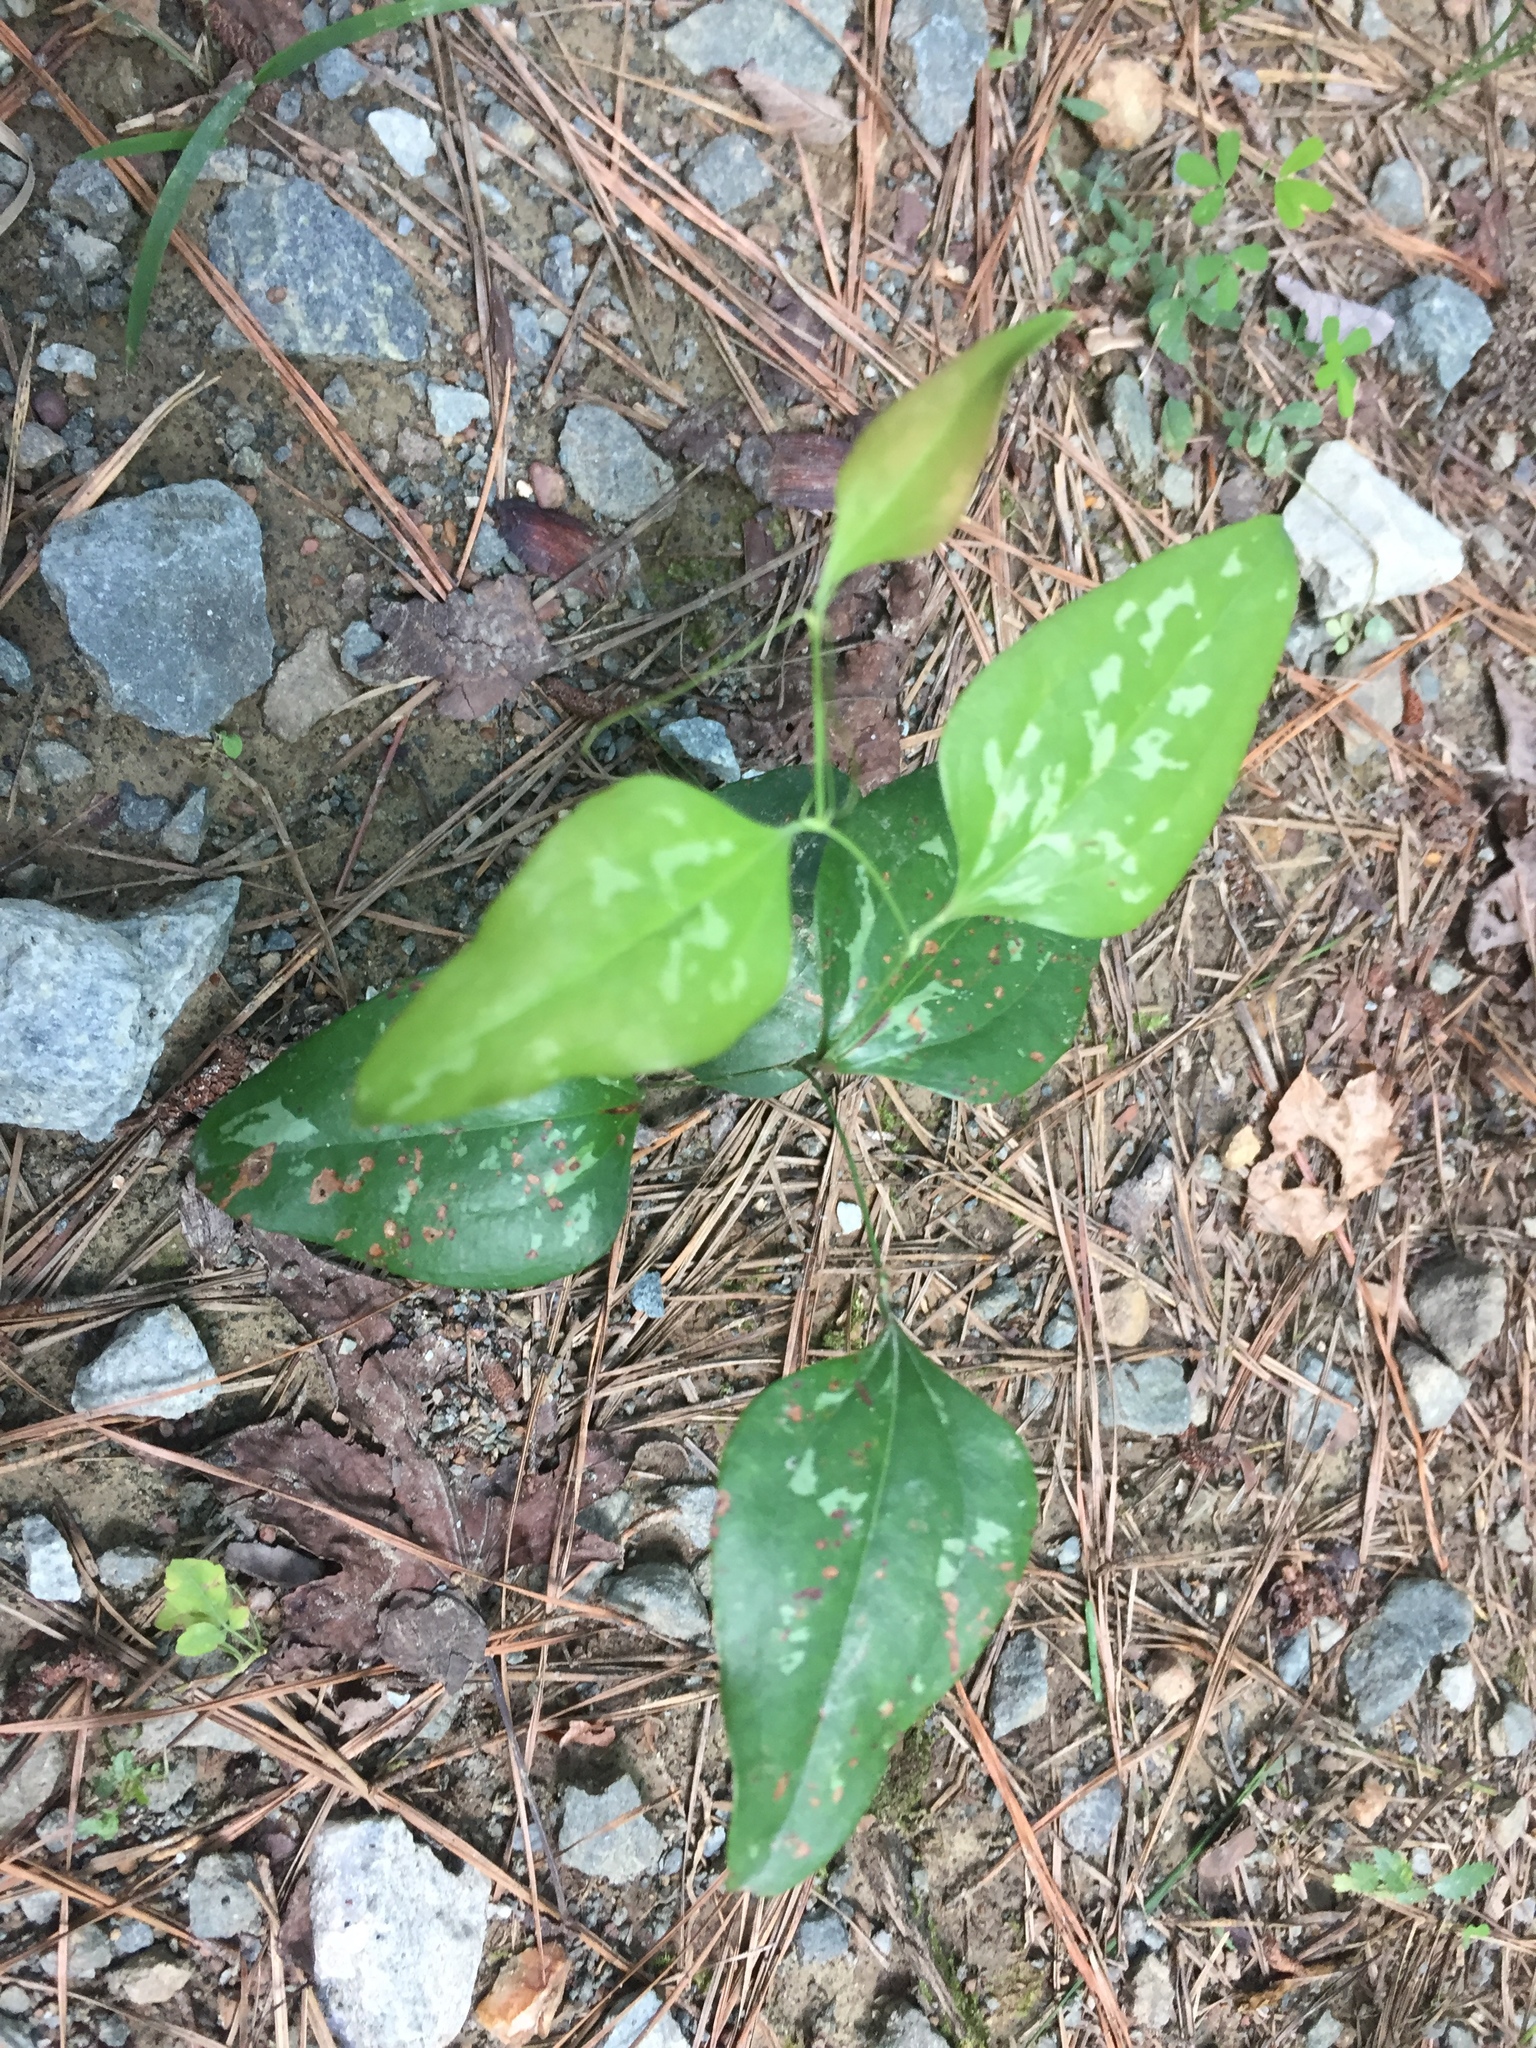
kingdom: Plantae
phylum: Tracheophyta
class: Liliopsida
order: Liliales
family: Smilacaceae
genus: Smilax
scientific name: Smilax glauca
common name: Cat greenbrier
